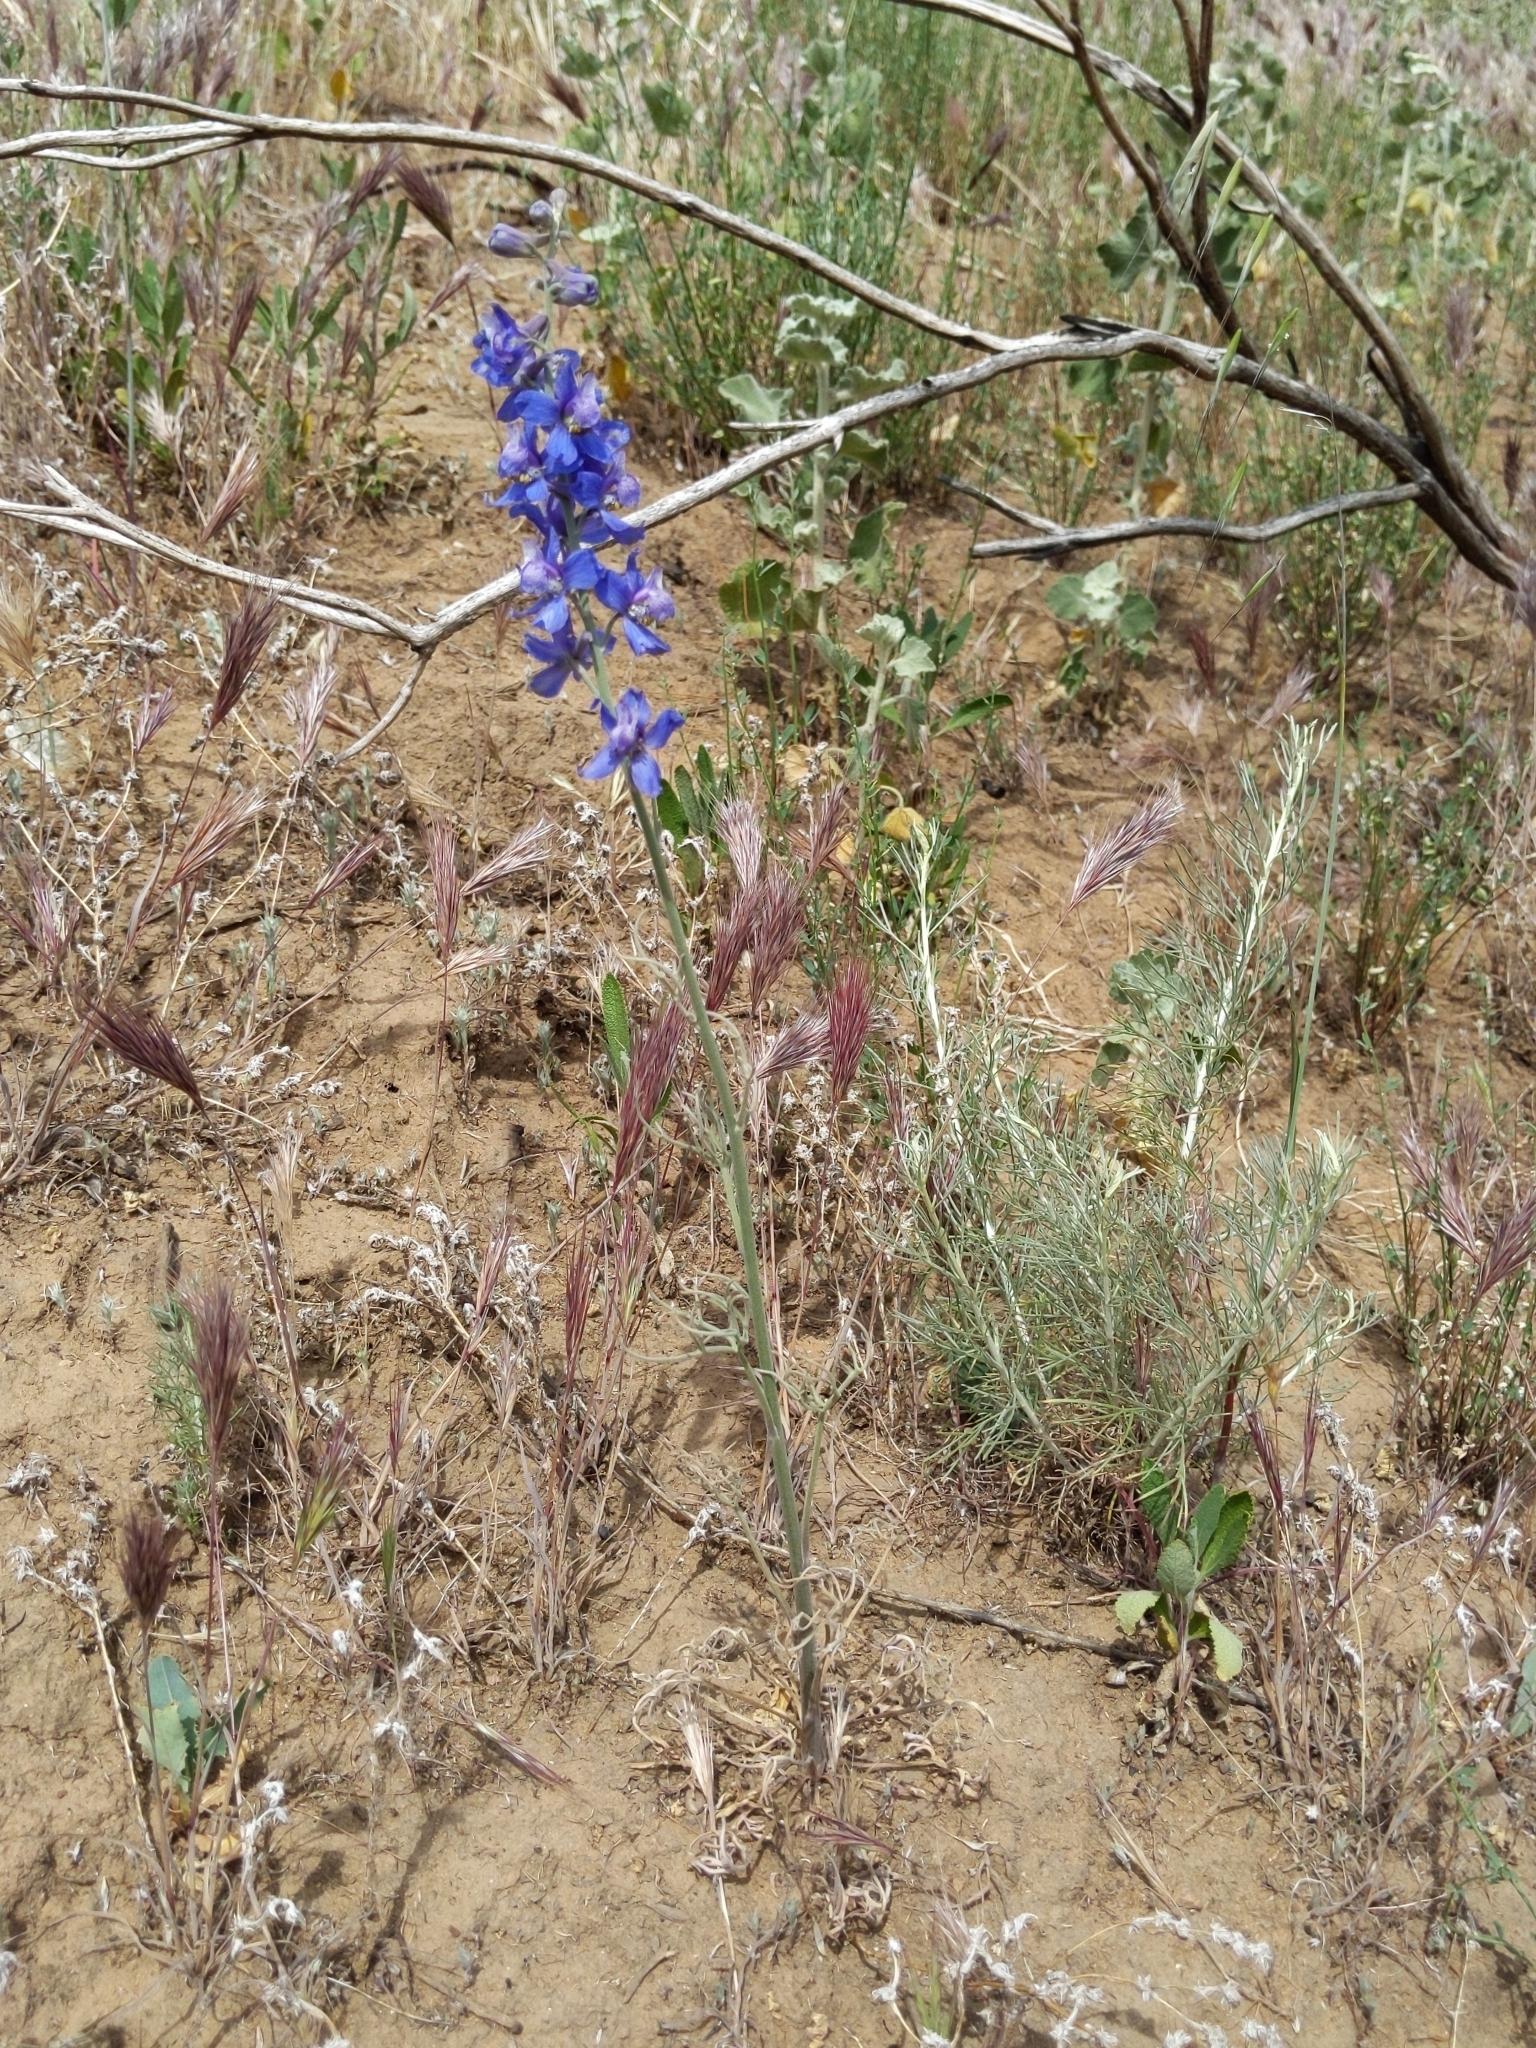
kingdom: Plantae
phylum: Tracheophyta
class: Magnoliopsida
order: Ranunculales
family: Ranunculaceae
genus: Delphinium
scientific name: Delphinium parryi
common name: Parry's larkspur
